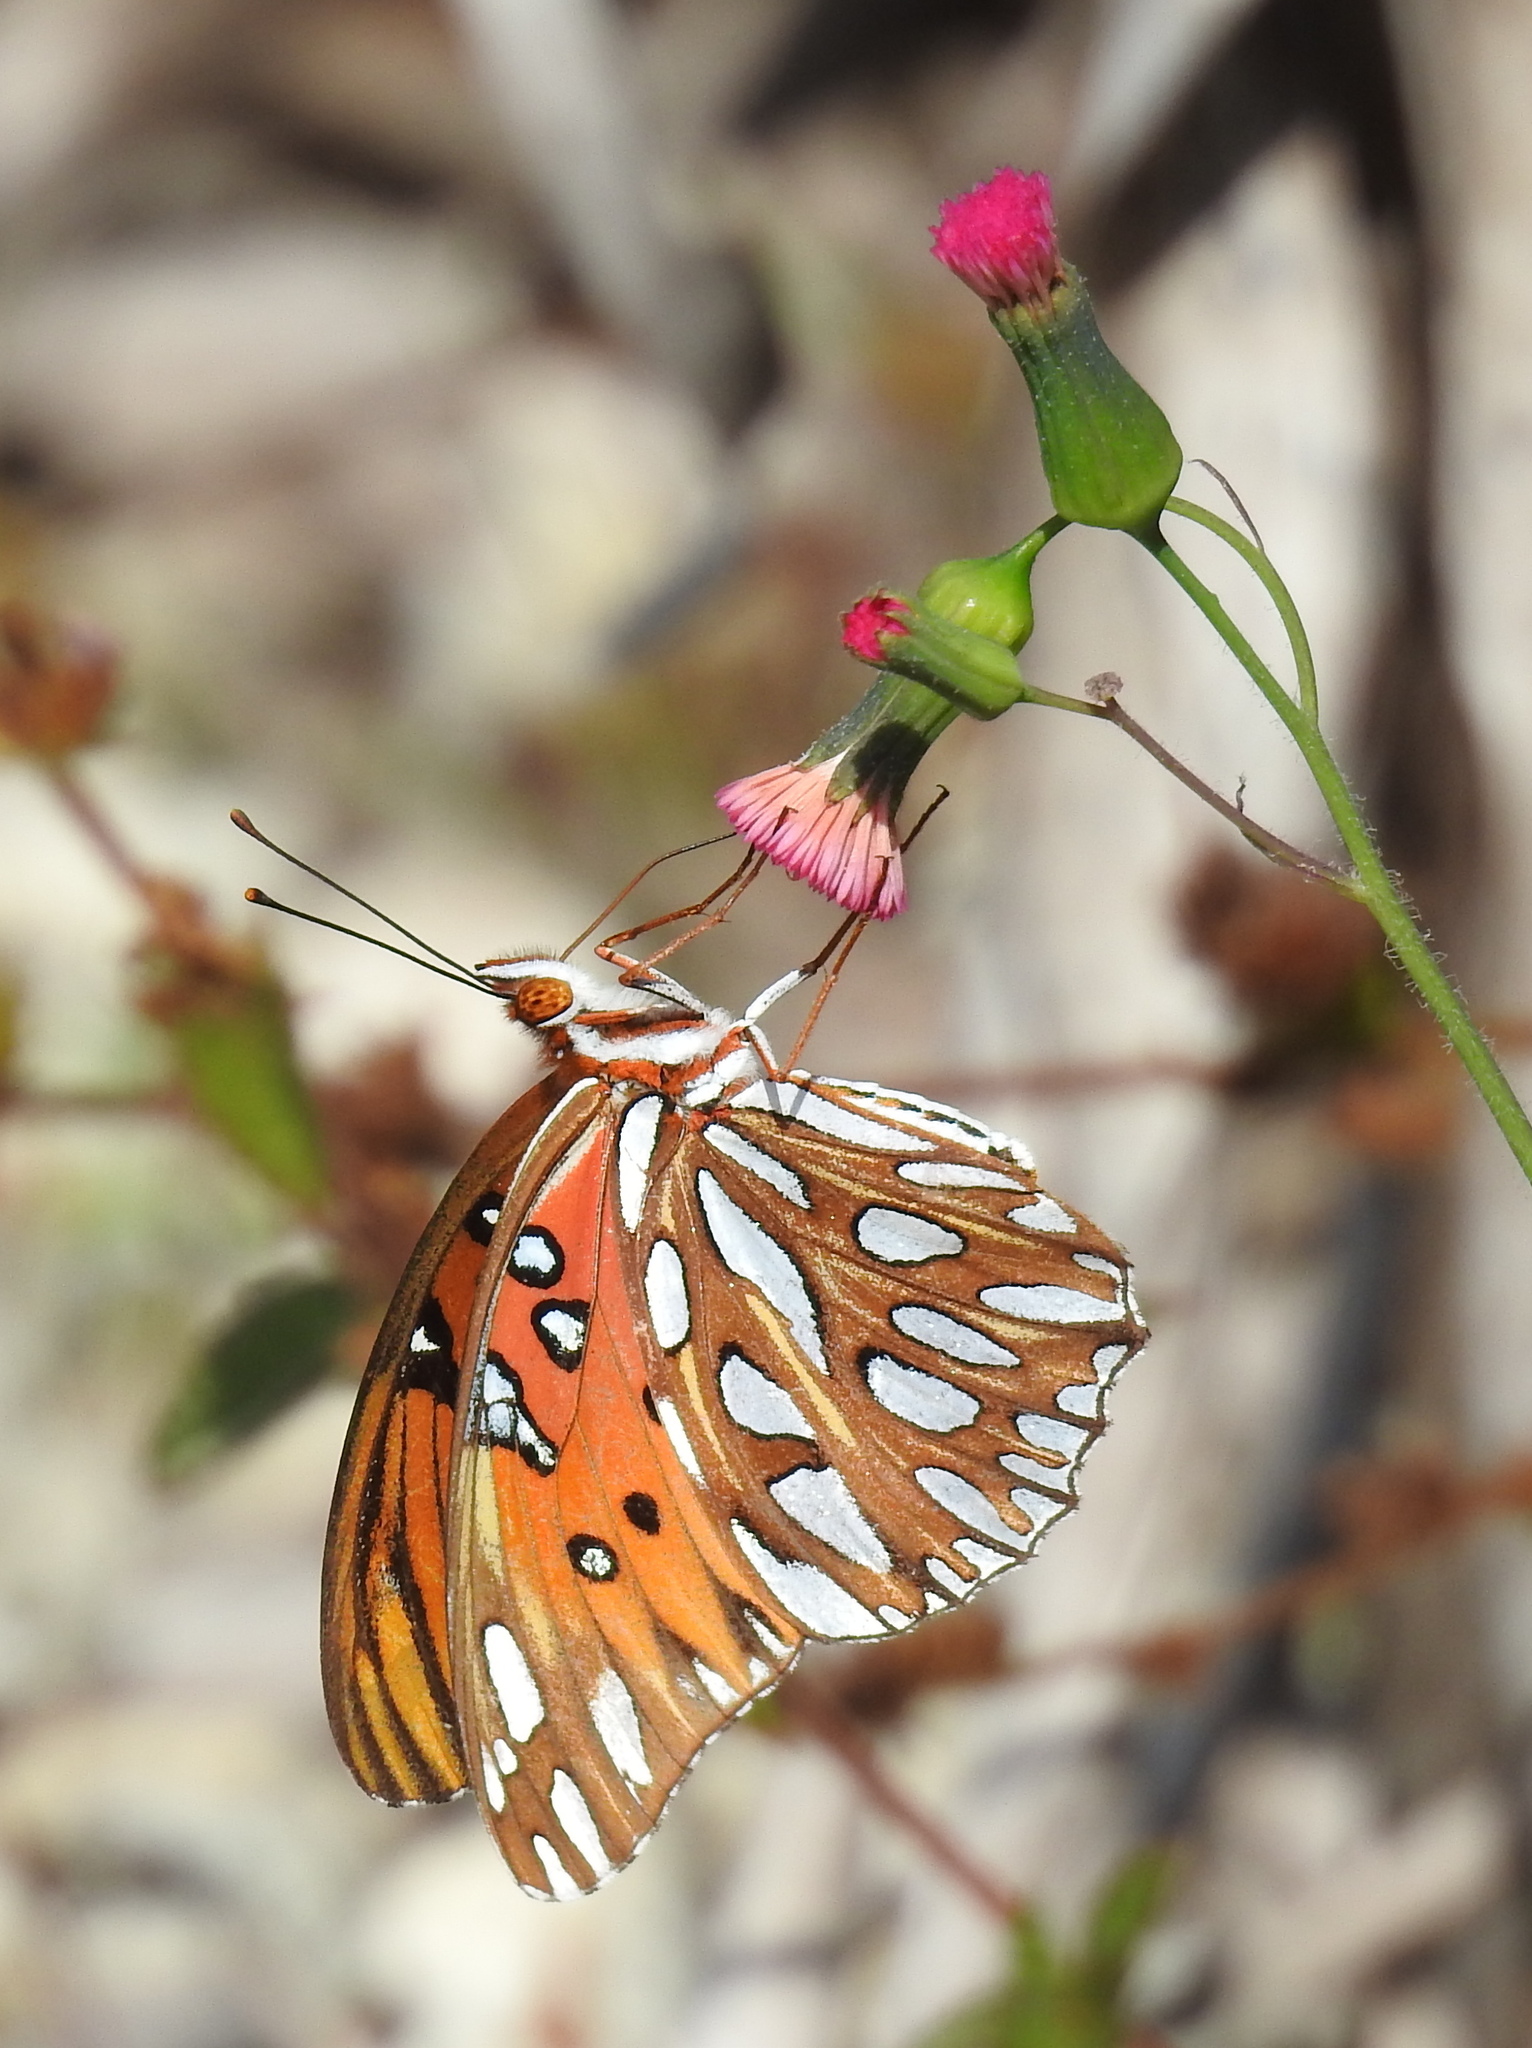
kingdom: Animalia
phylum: Arthropoda
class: Insecta
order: Lepidoptera
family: Nymphalidae
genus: Dione
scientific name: Dione vanillae
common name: Gulf fritillary
